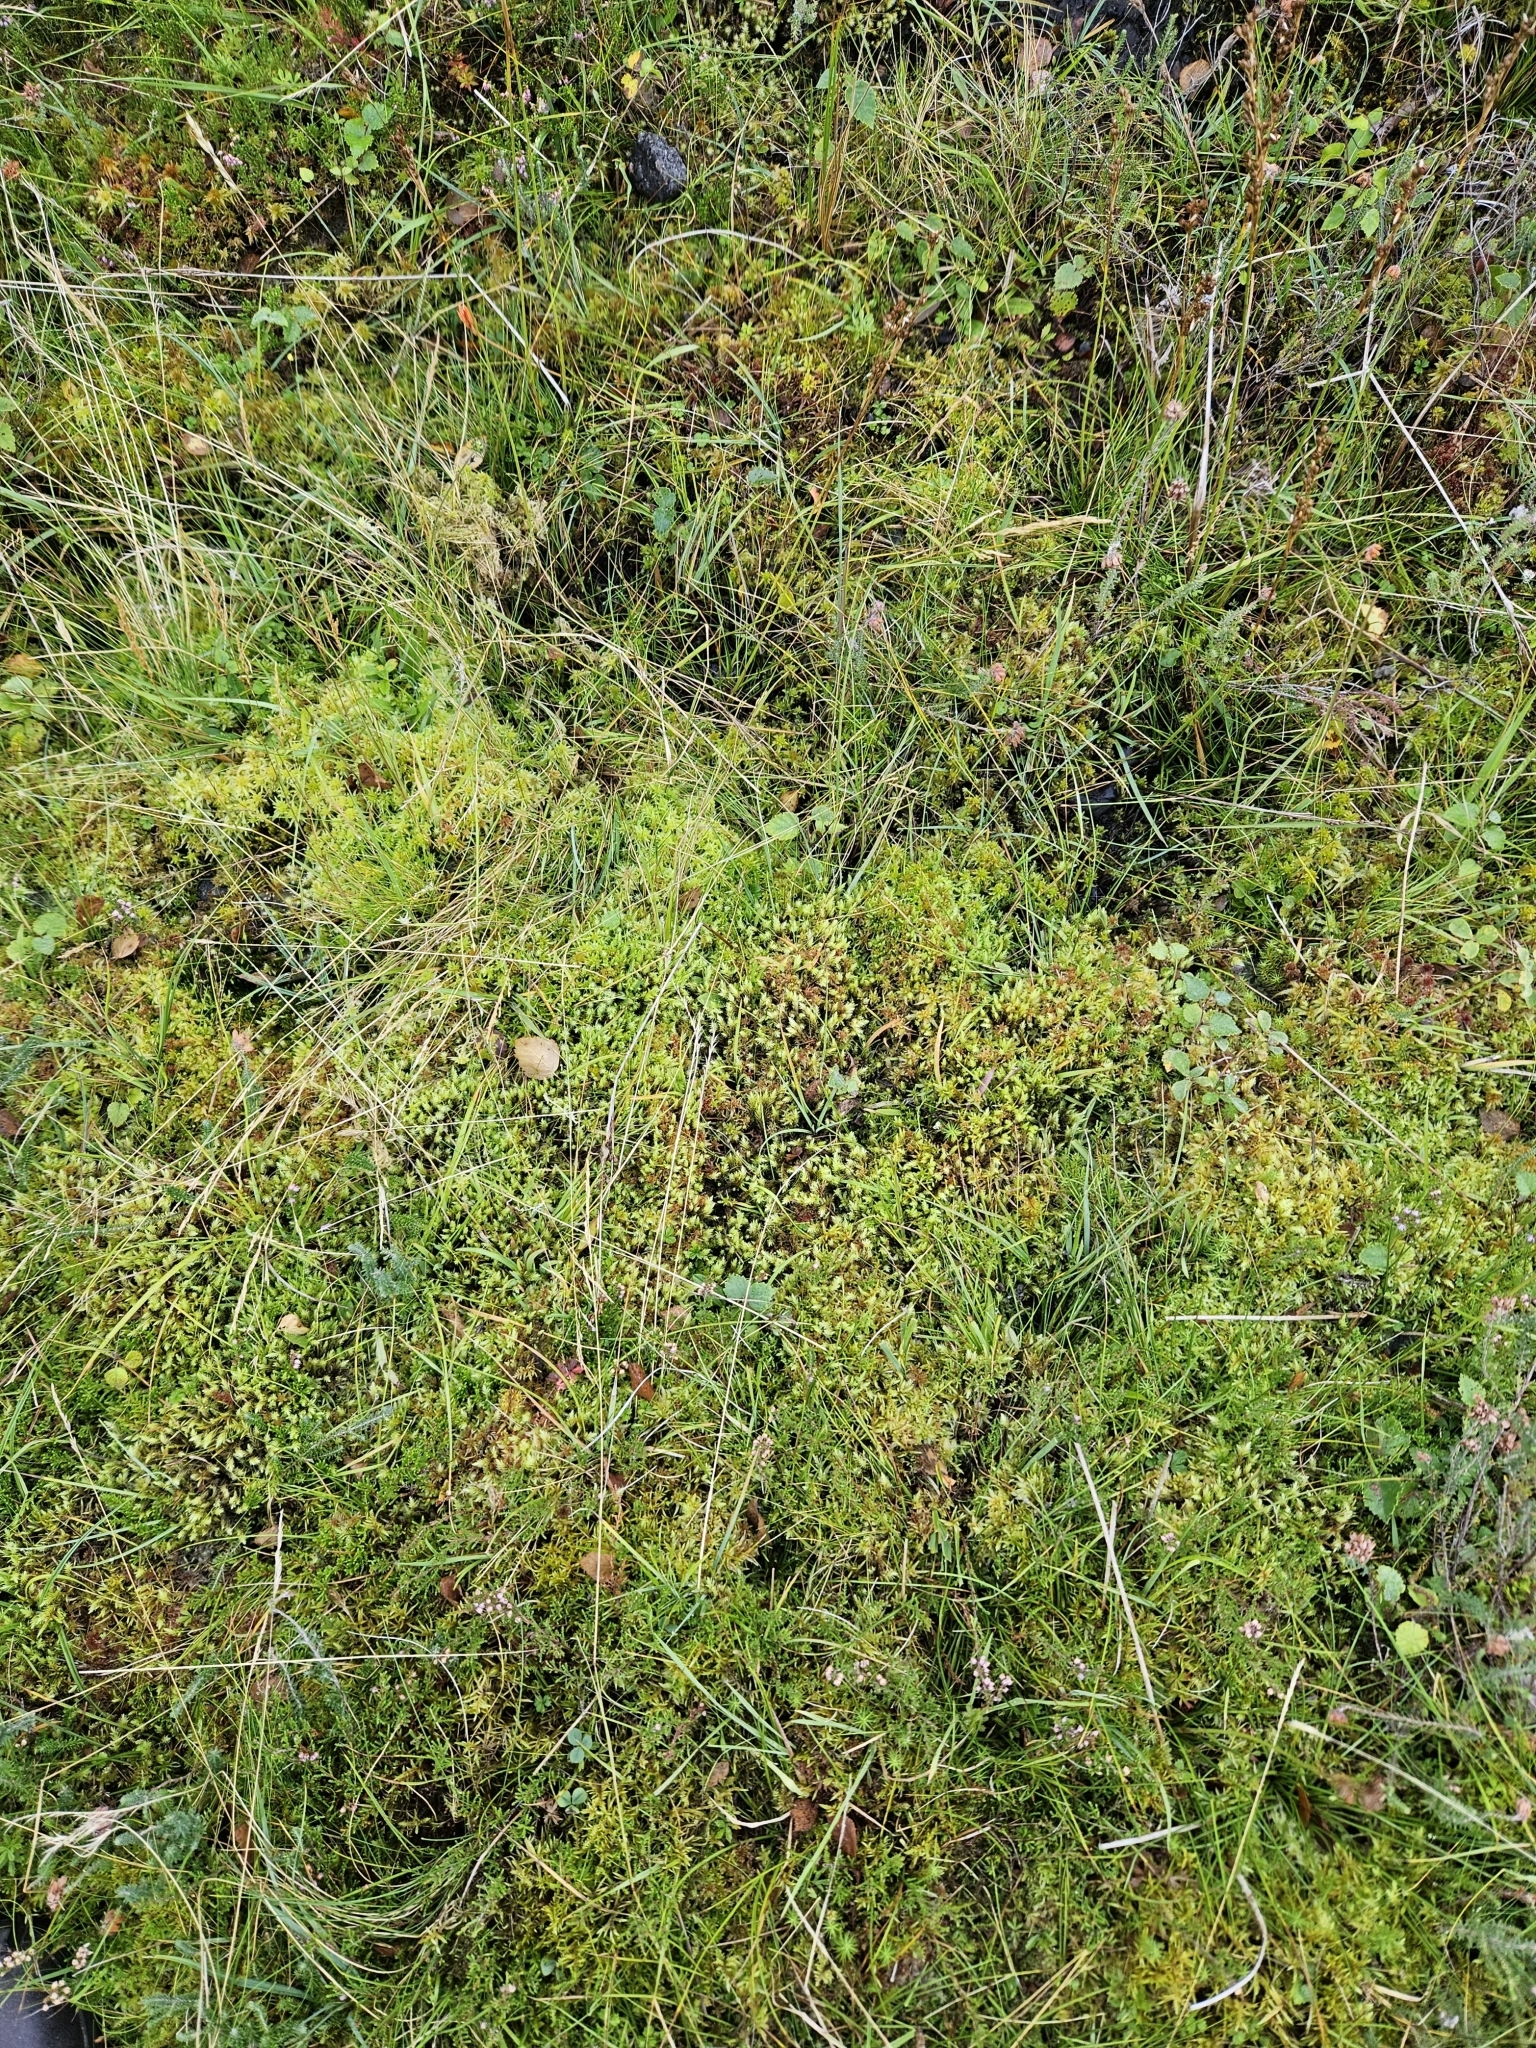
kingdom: Plantae
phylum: Bryophyta
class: Bryopsida
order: Aulacomniales
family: Aulacomniaceae
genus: Aulacomnium
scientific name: Aulacomnium palustre
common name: Bog groove-moss
